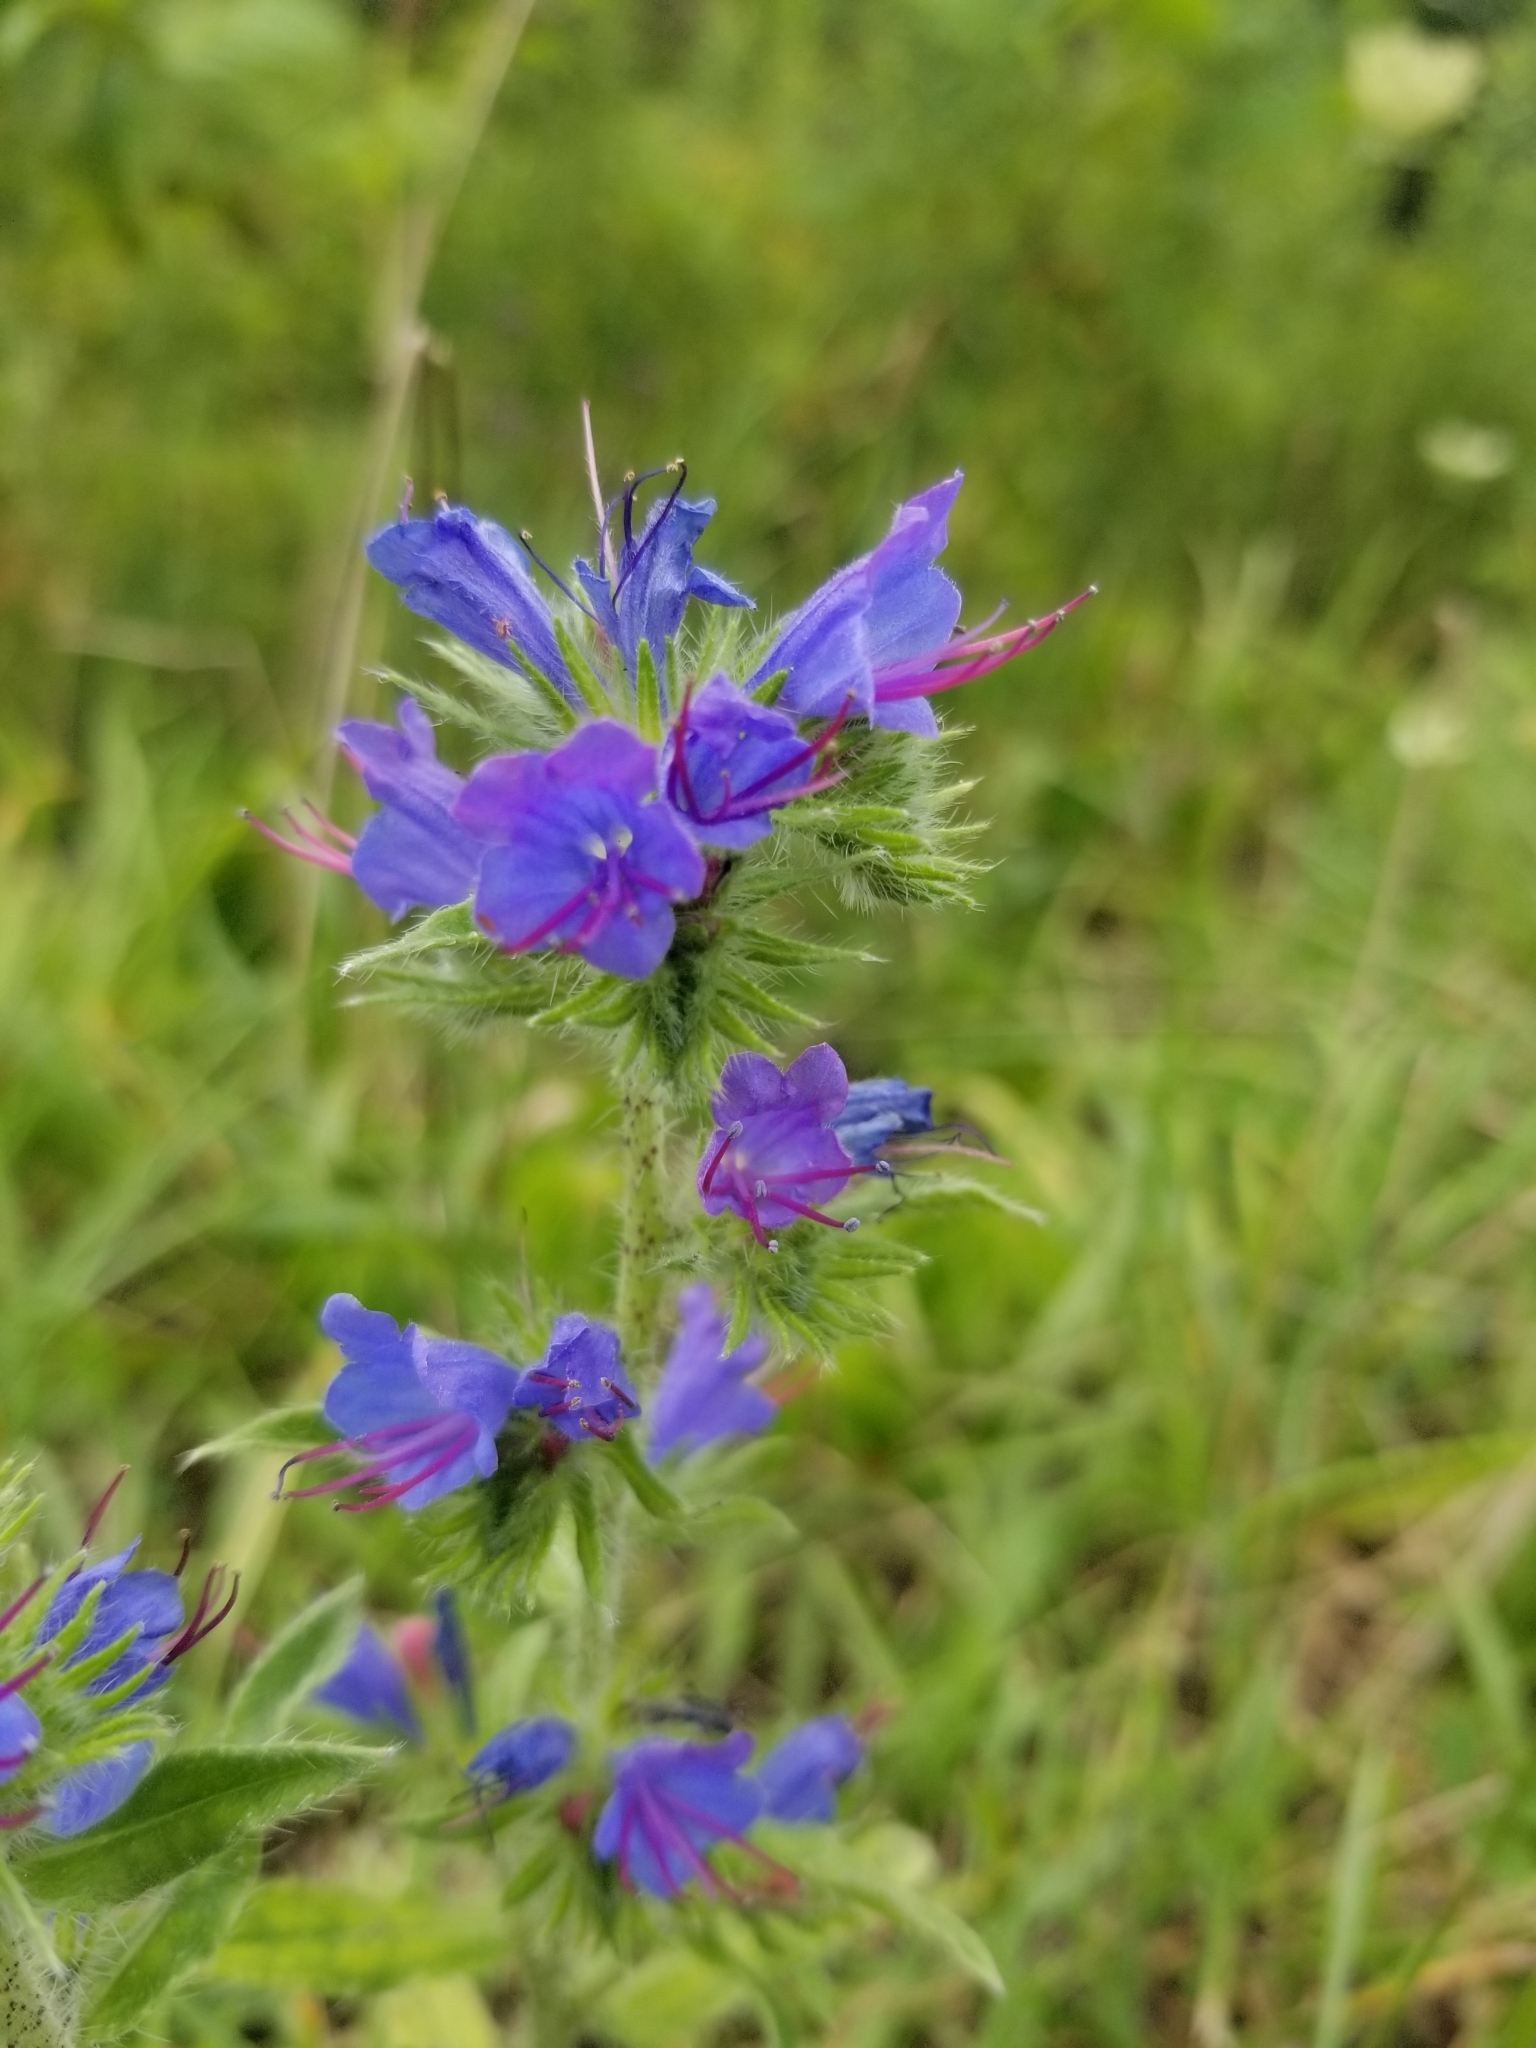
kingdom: Plantae
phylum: Tracheophyta
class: Magnoliopsida
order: Boraginales
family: Boraginaceae
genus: Echium
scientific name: Echium vulgare
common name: Common viper's bugloss
